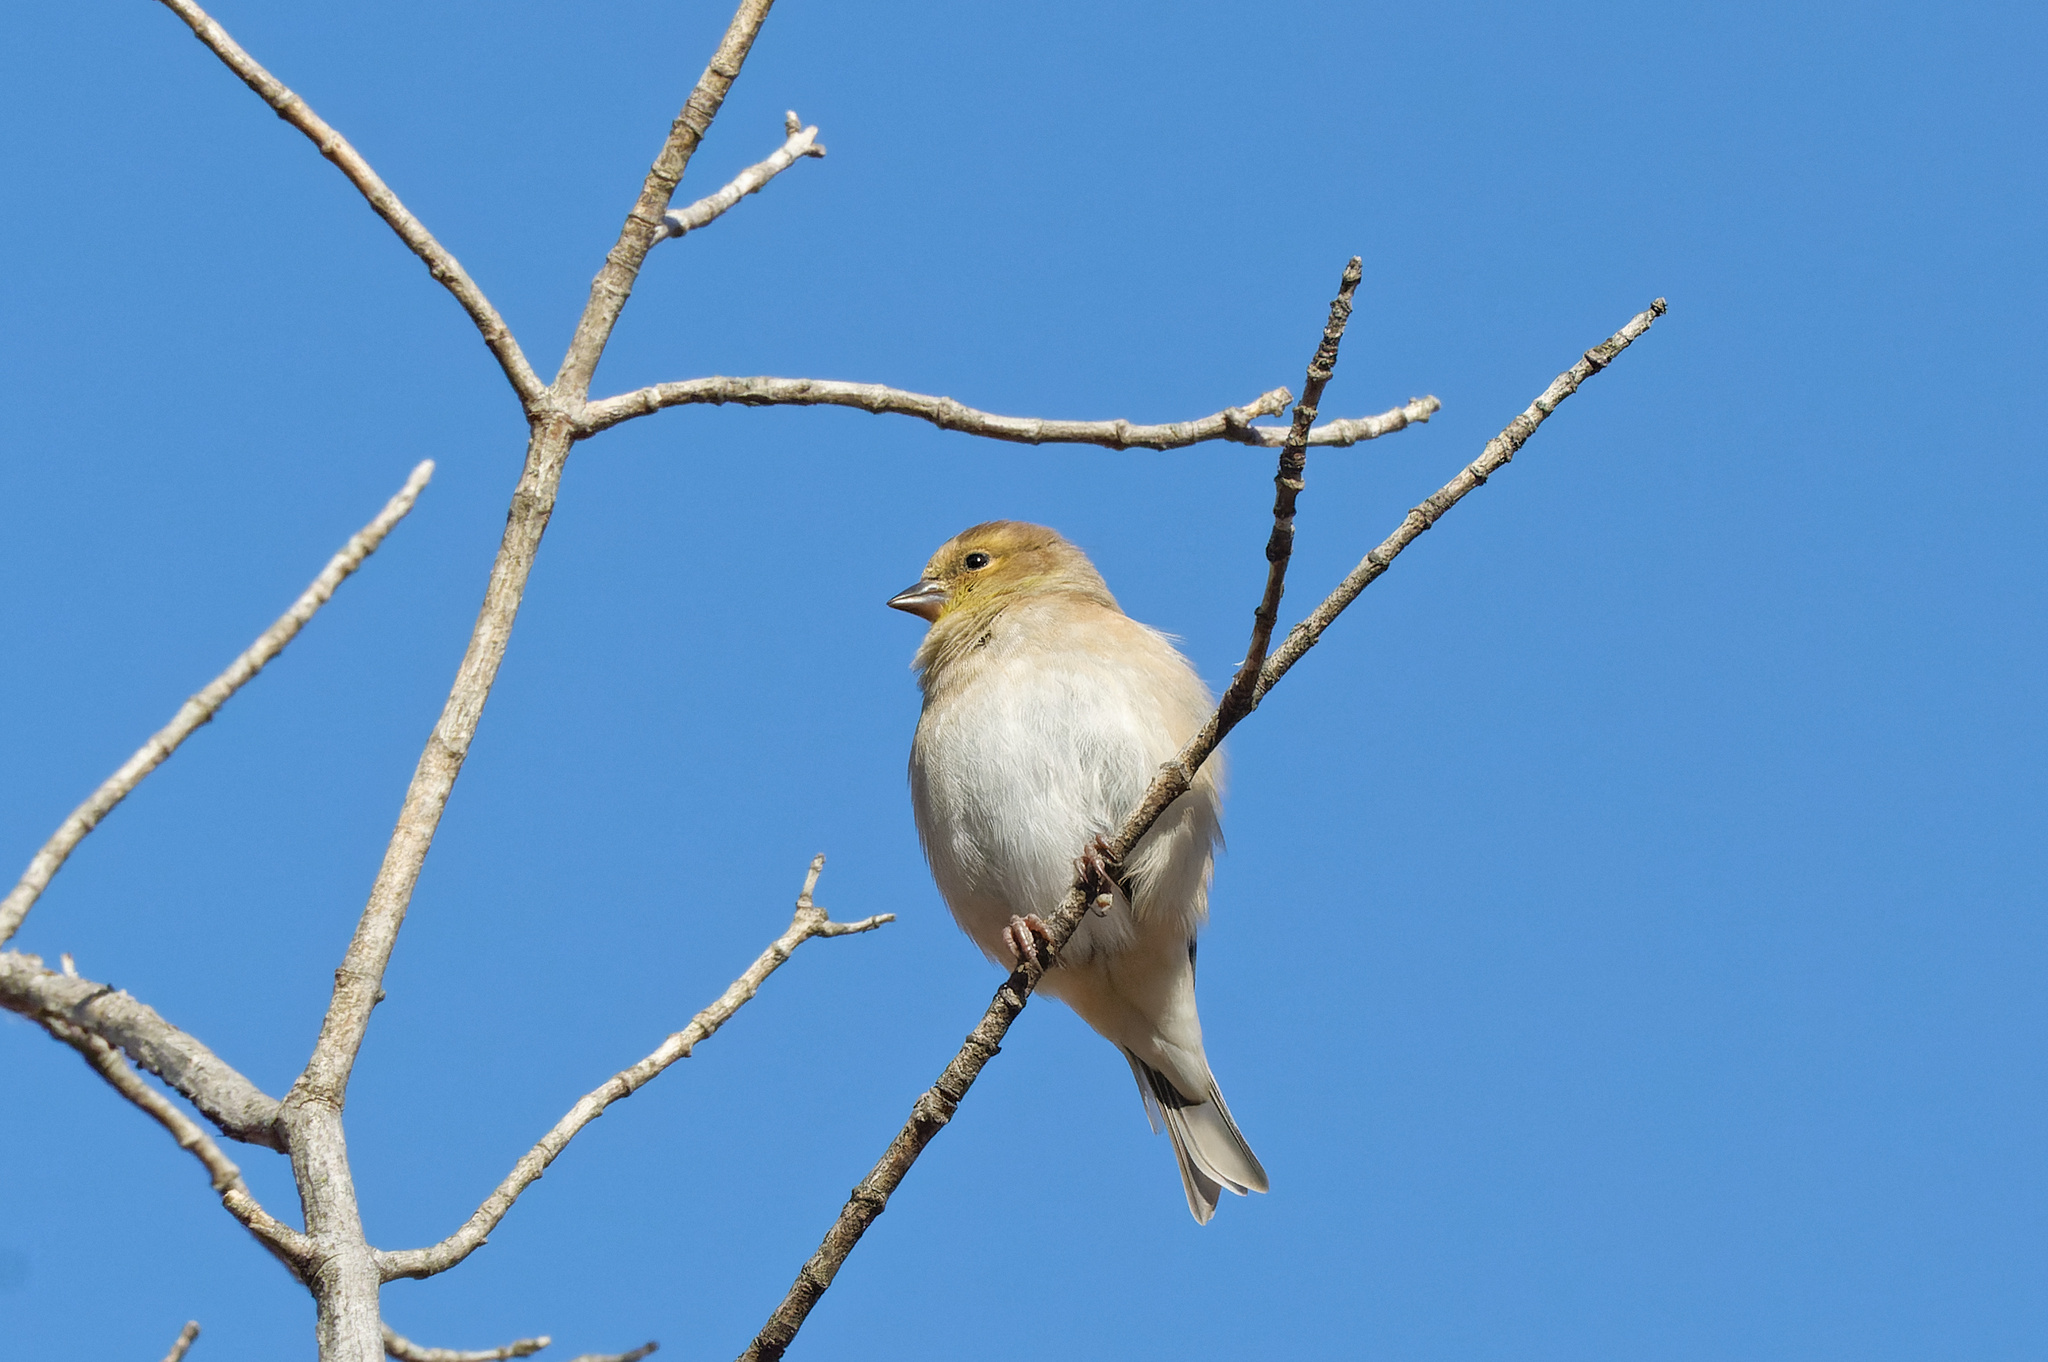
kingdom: Animalia
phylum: Chordata
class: Aves
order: Passeriformes
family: Fringillidae
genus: Spinus
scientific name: Spinus tristis
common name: American goldfinch
